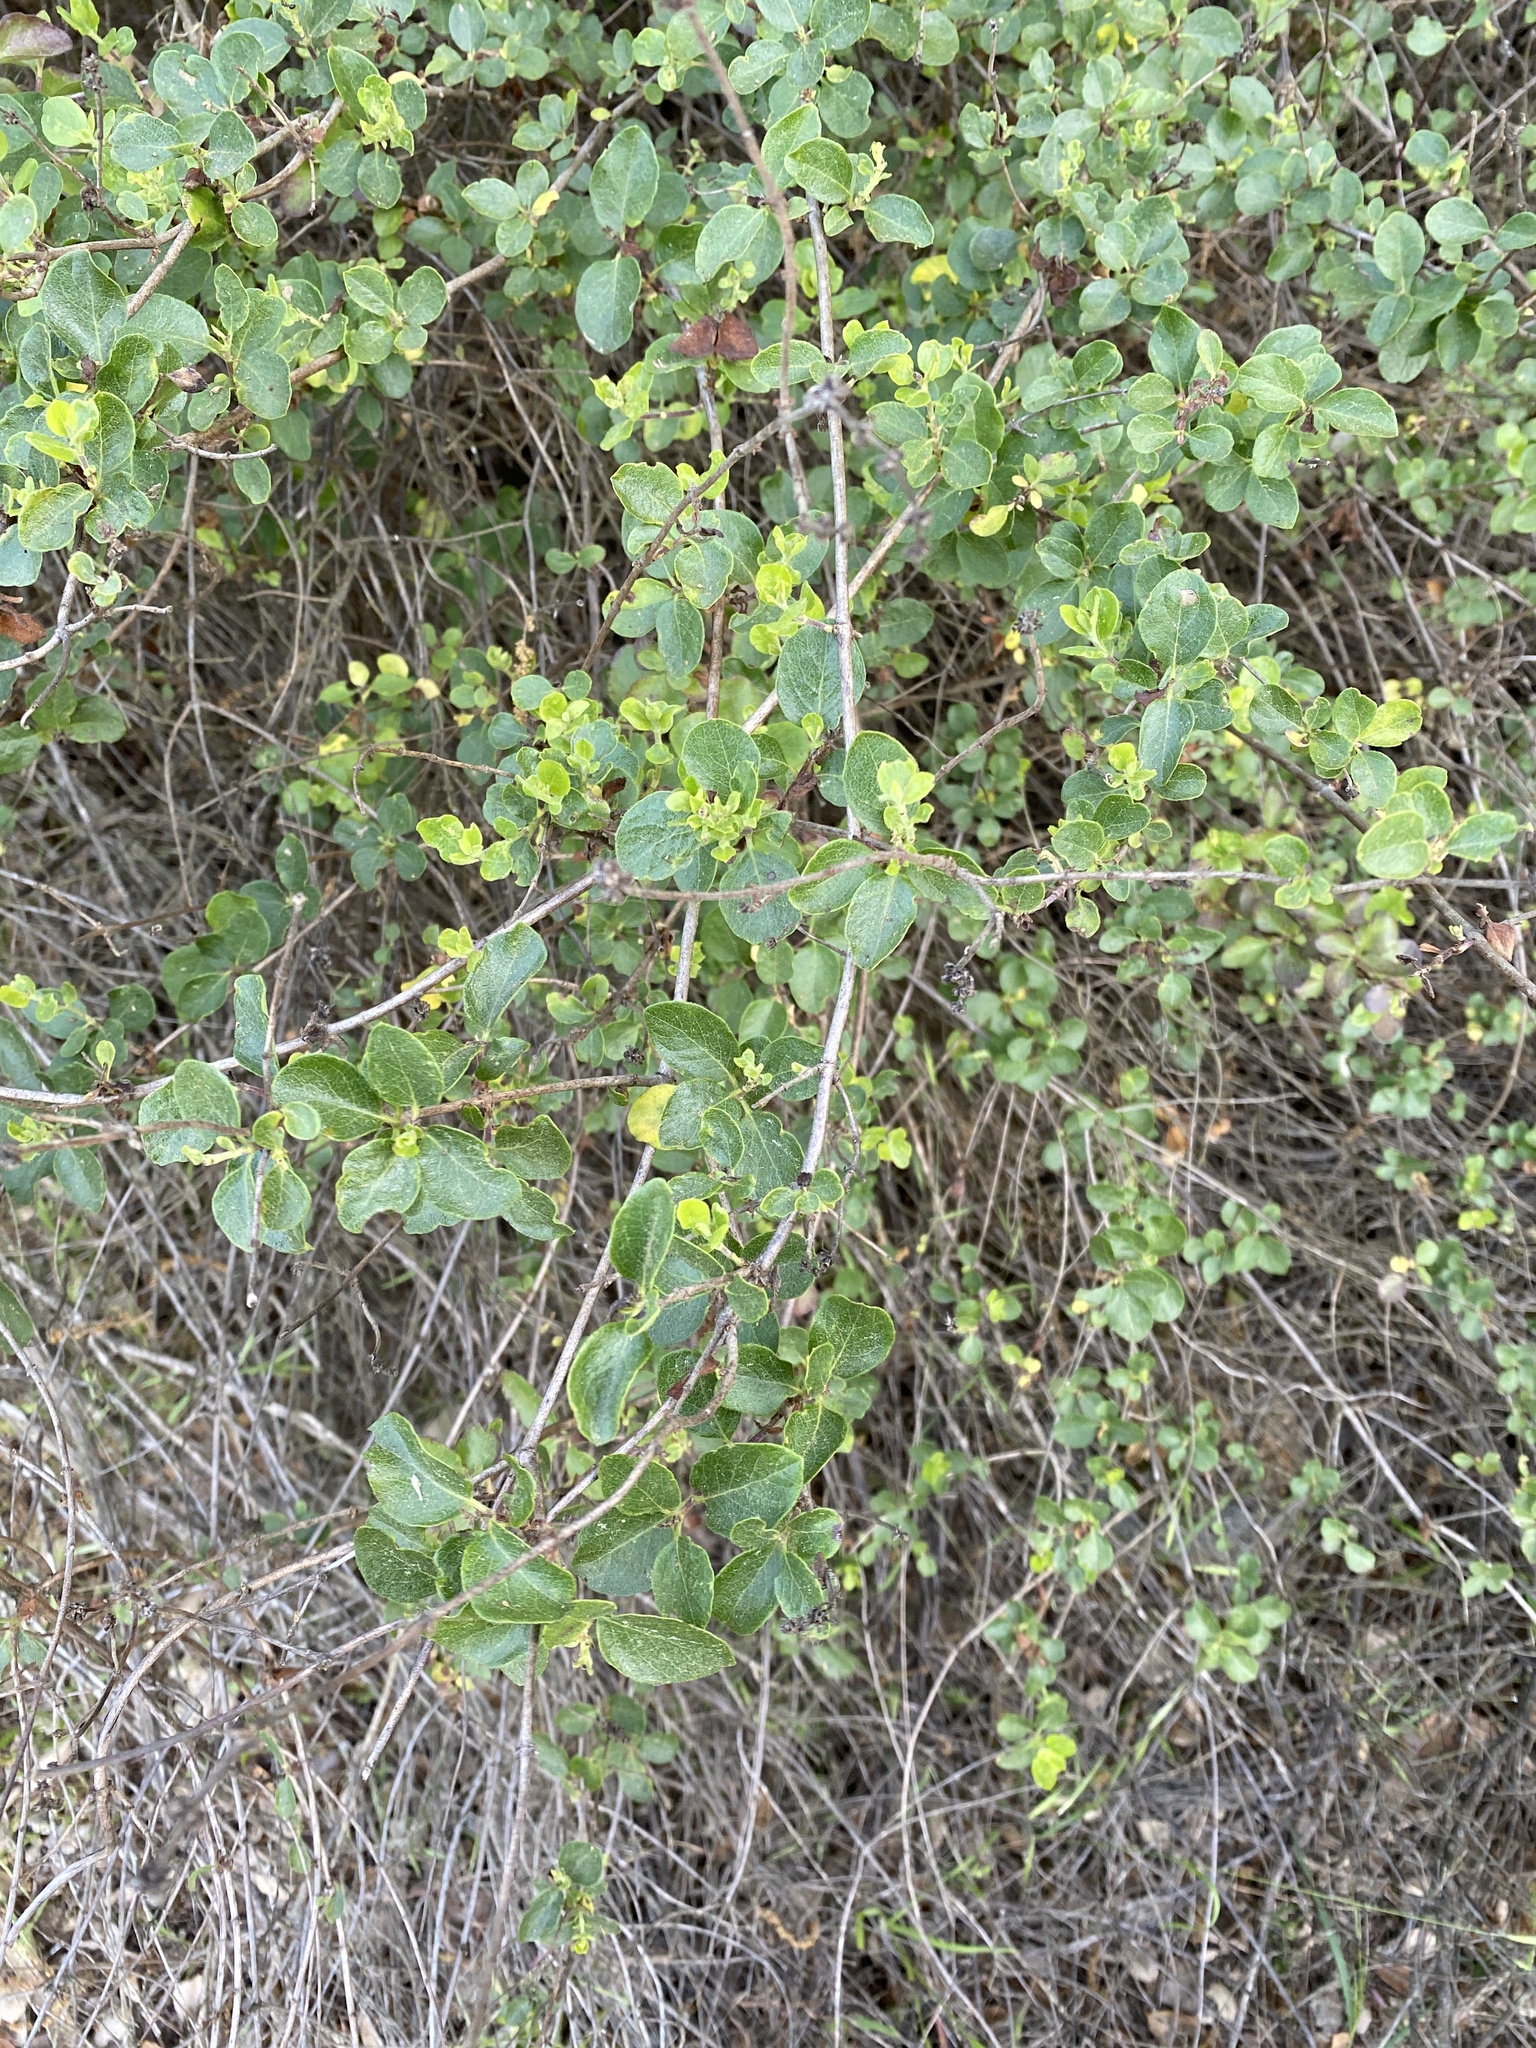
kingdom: Plantae
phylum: Tracheophyta
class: Magnoliopsida
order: Dipsacales
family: Caprifoliaceae
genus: Lonicera
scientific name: Lonicera subspicata
